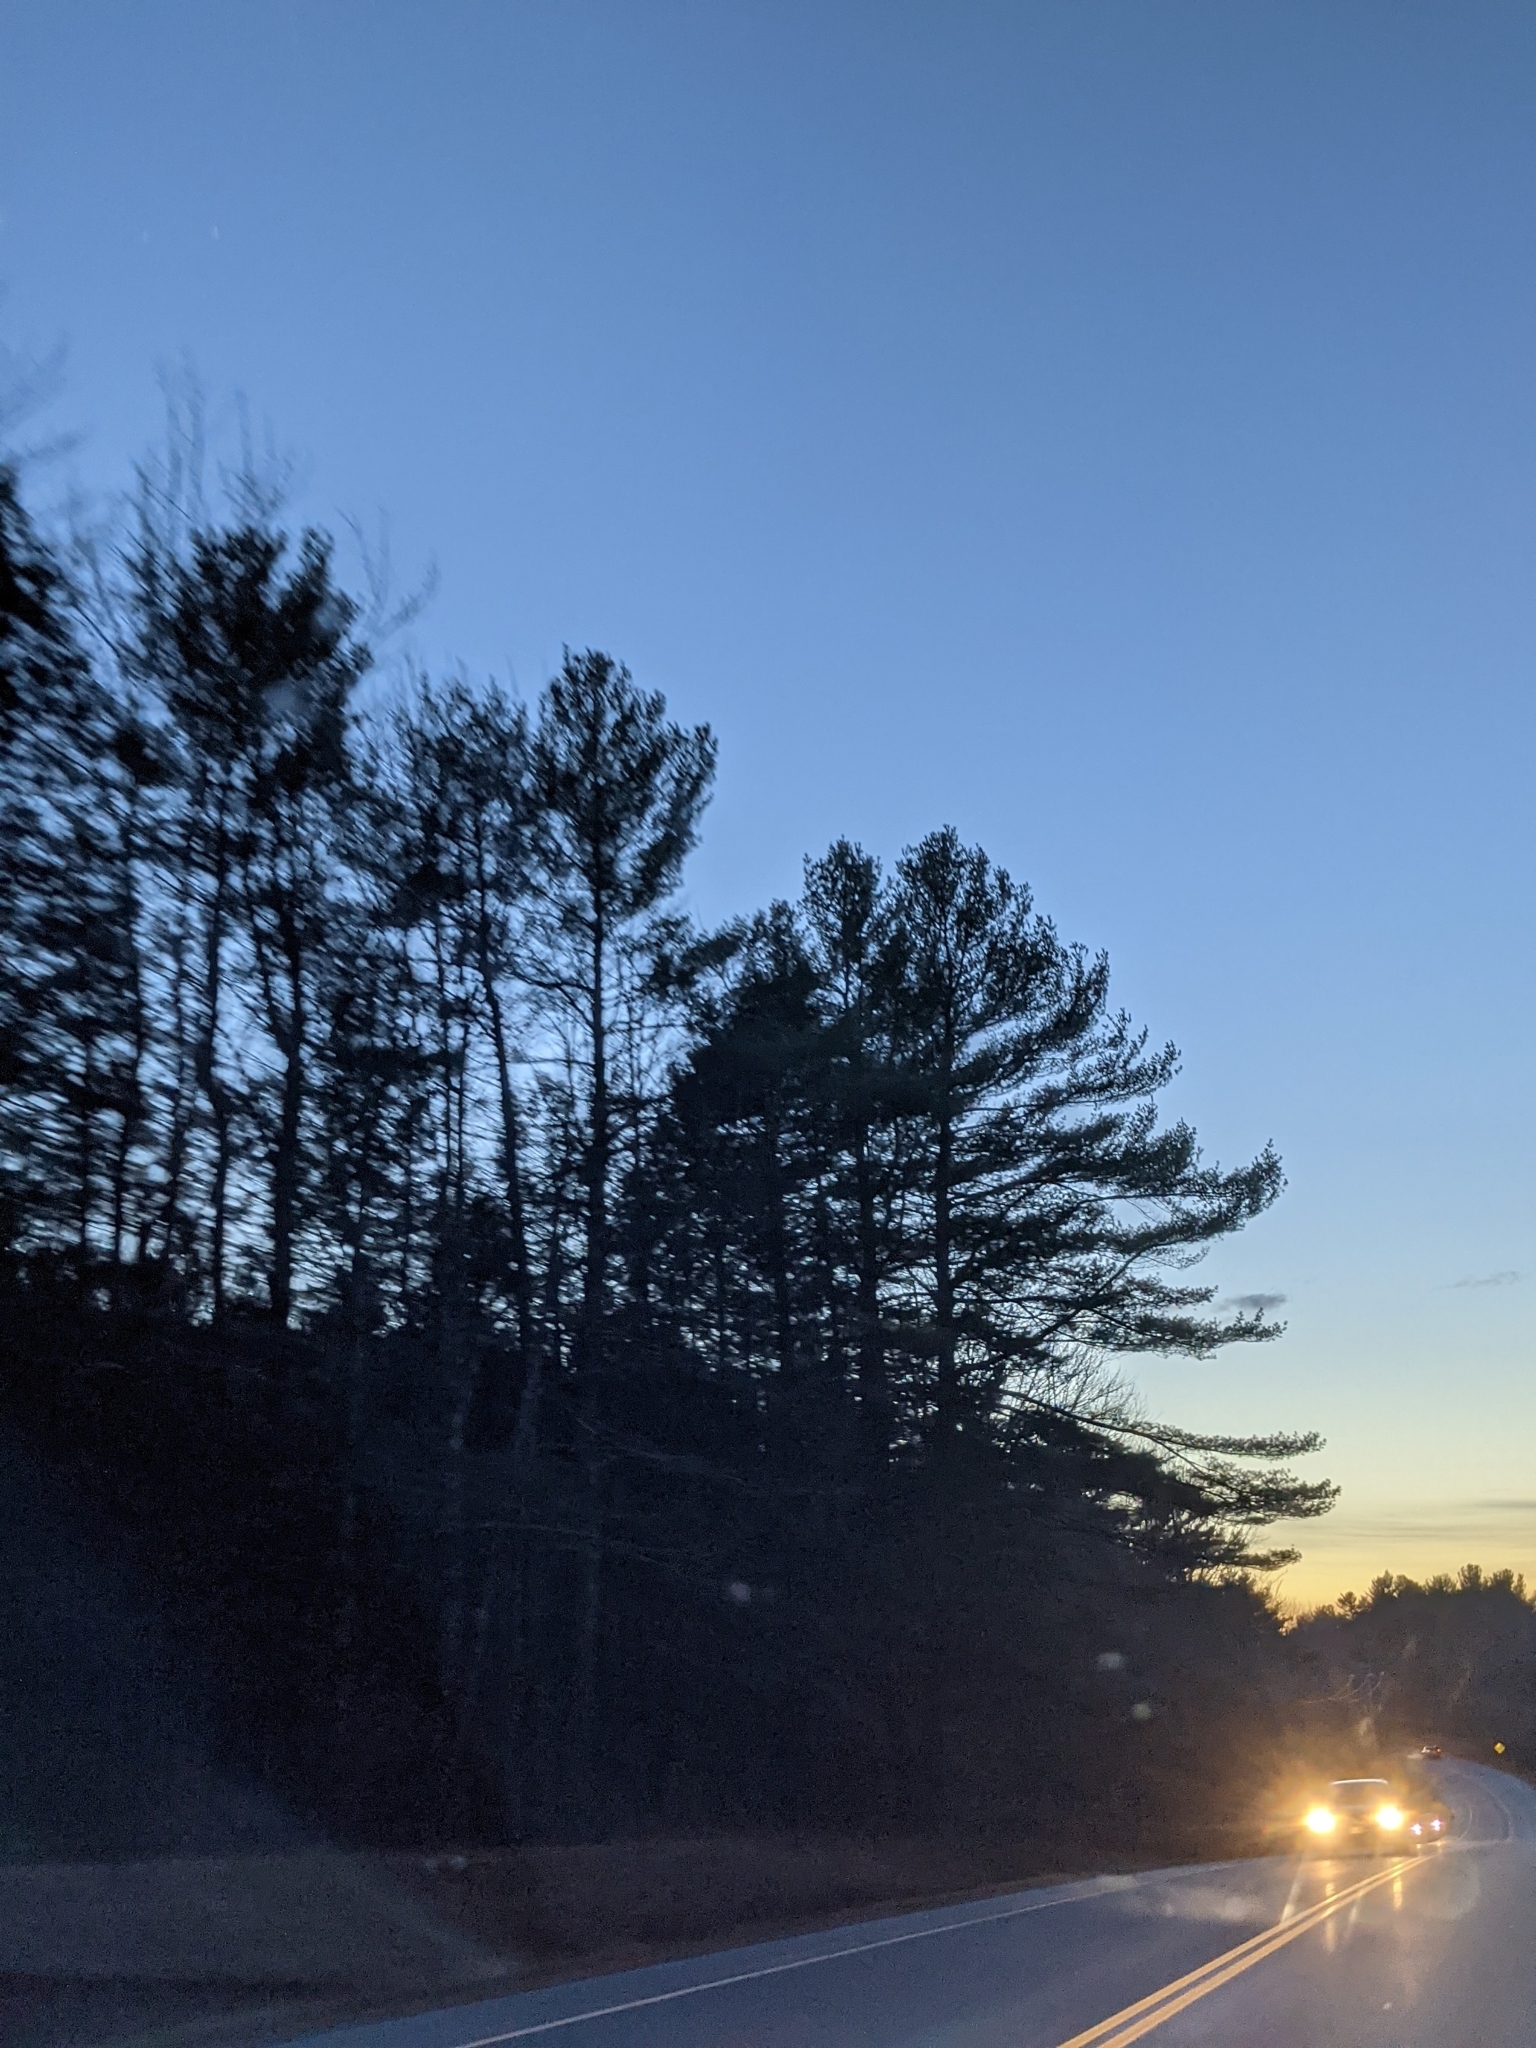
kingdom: Plantae
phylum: Tracheophyta
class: Pinopsida
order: Pinales
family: Pinaceae
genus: Pinus
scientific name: Pinus strobus
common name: Weymouth pine
